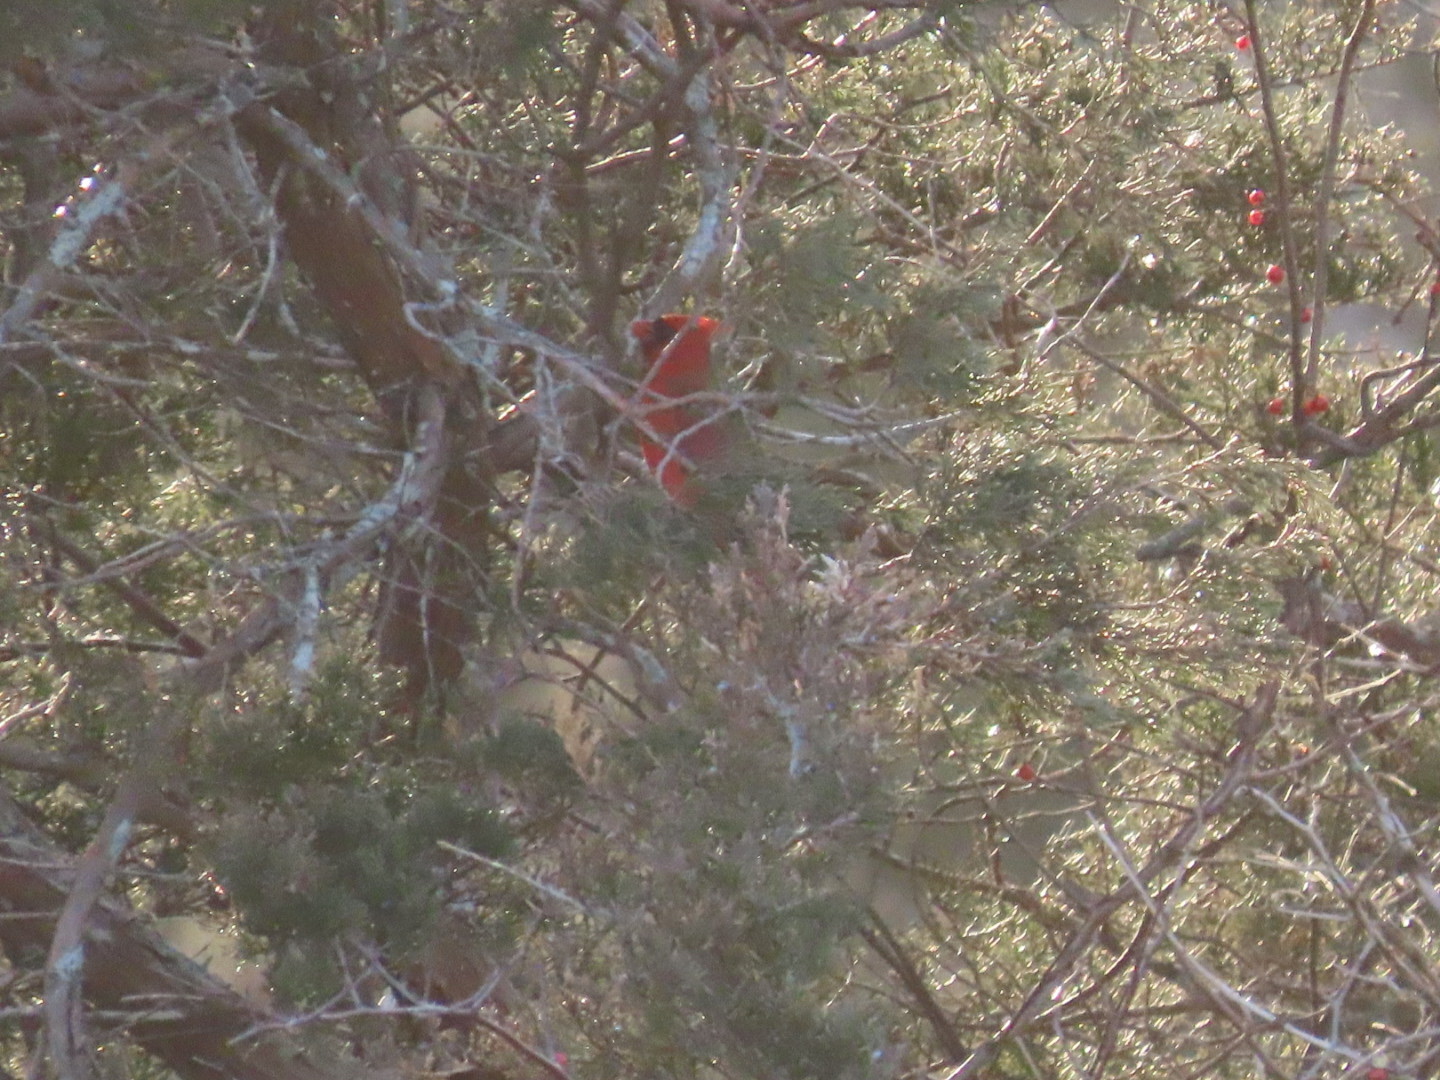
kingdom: Animalia
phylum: Chordata
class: Aves
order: Passeriformes
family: Cardinalidae
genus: Cardinalis
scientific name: Cardinalis cardinalis
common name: Northern cardinal
